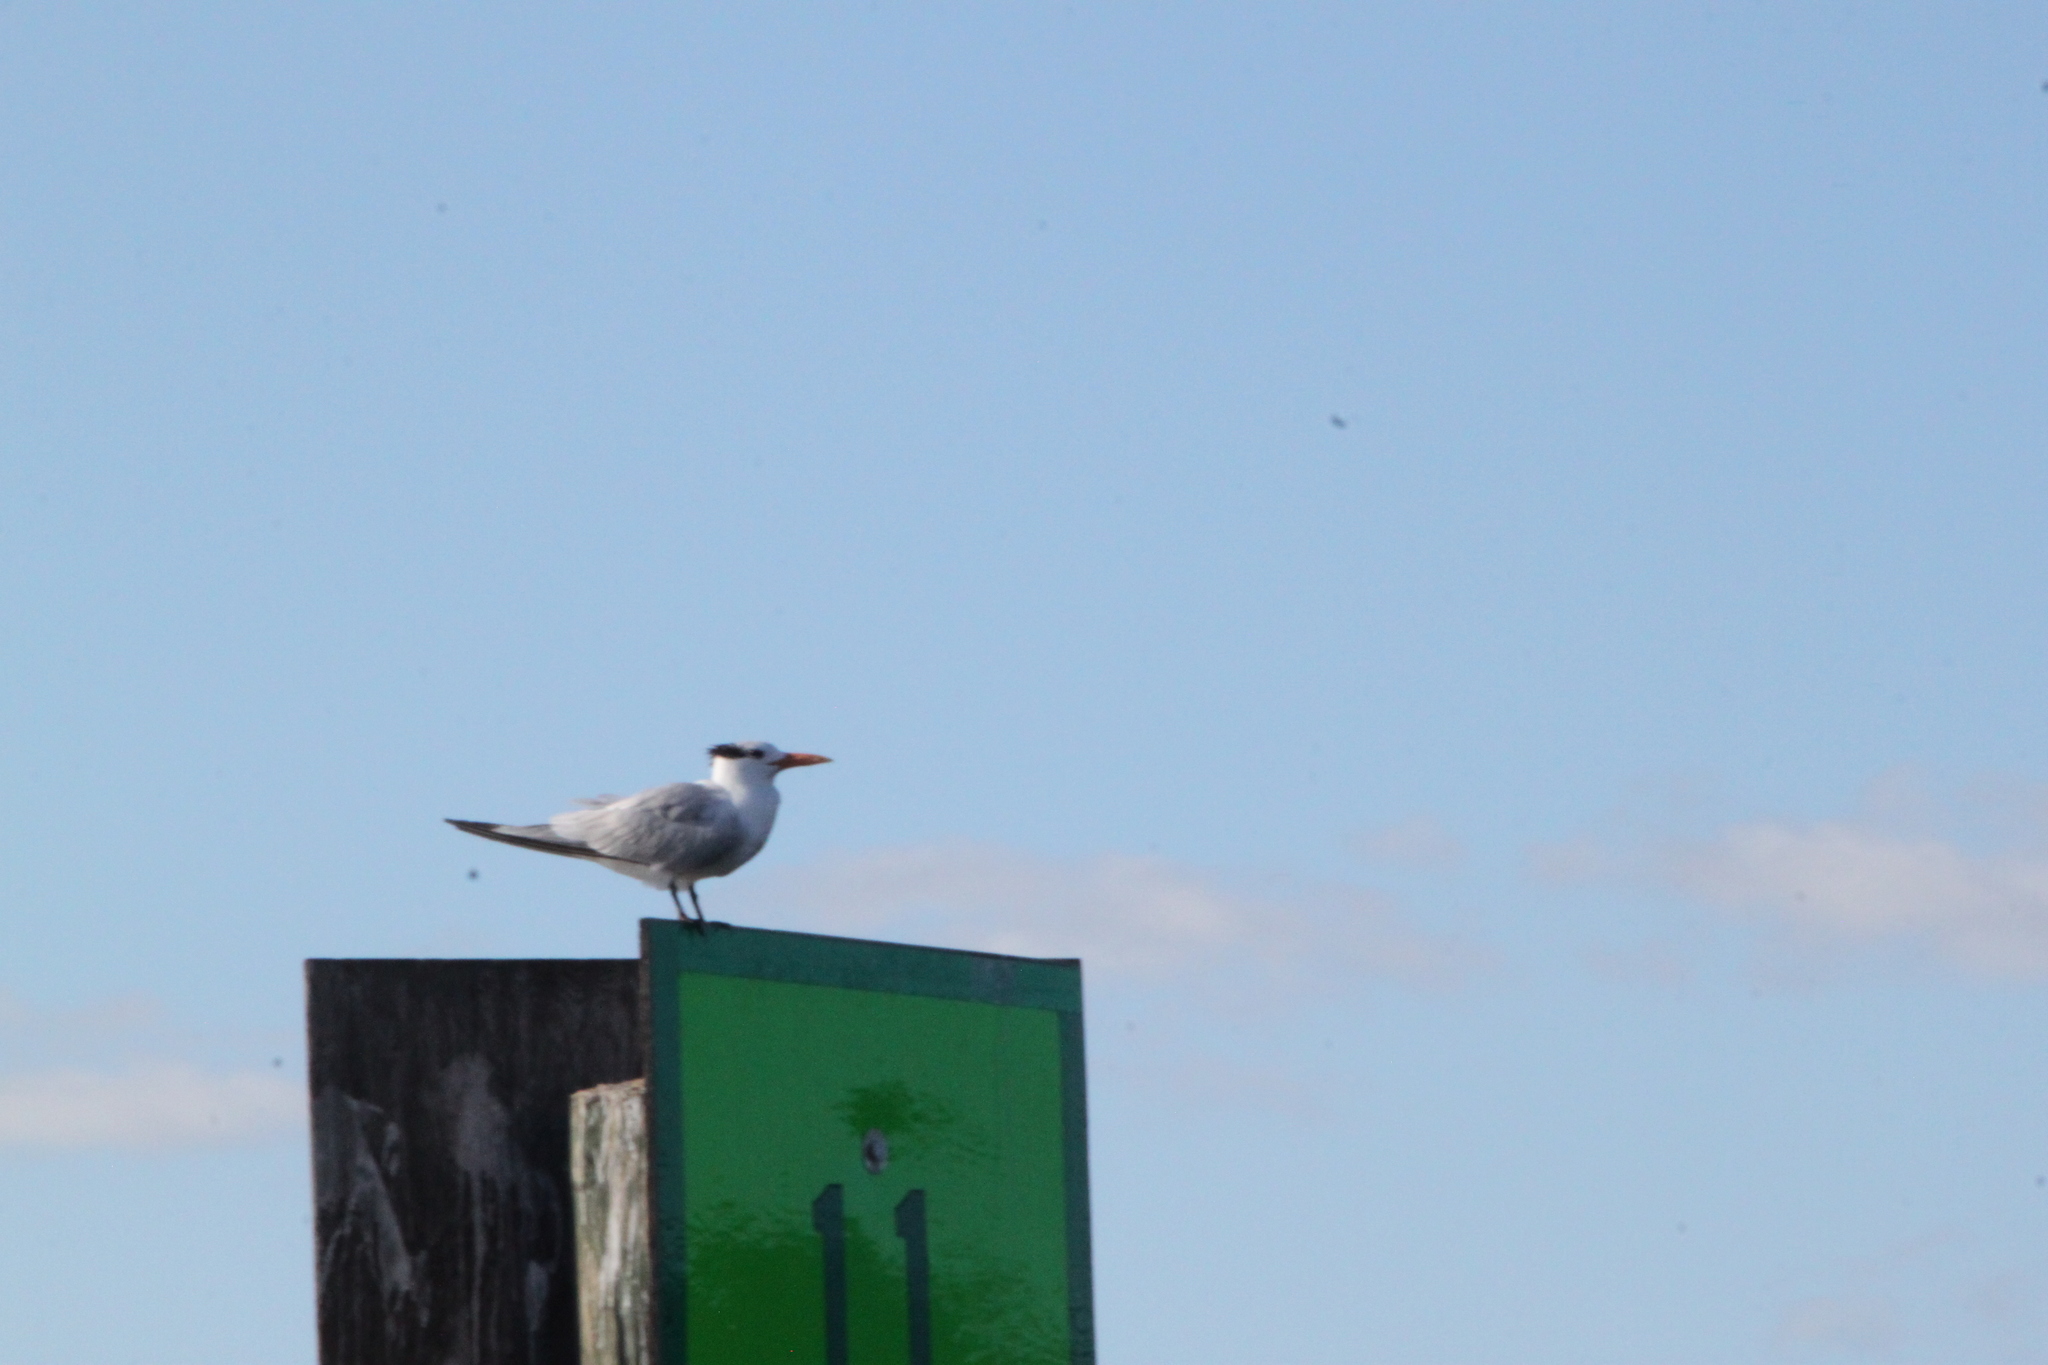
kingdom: Animalia
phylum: Chordata
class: Aves
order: Charadriiformes
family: Laridae
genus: Thalasseus
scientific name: Thalasseus maximus
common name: Royal tern
